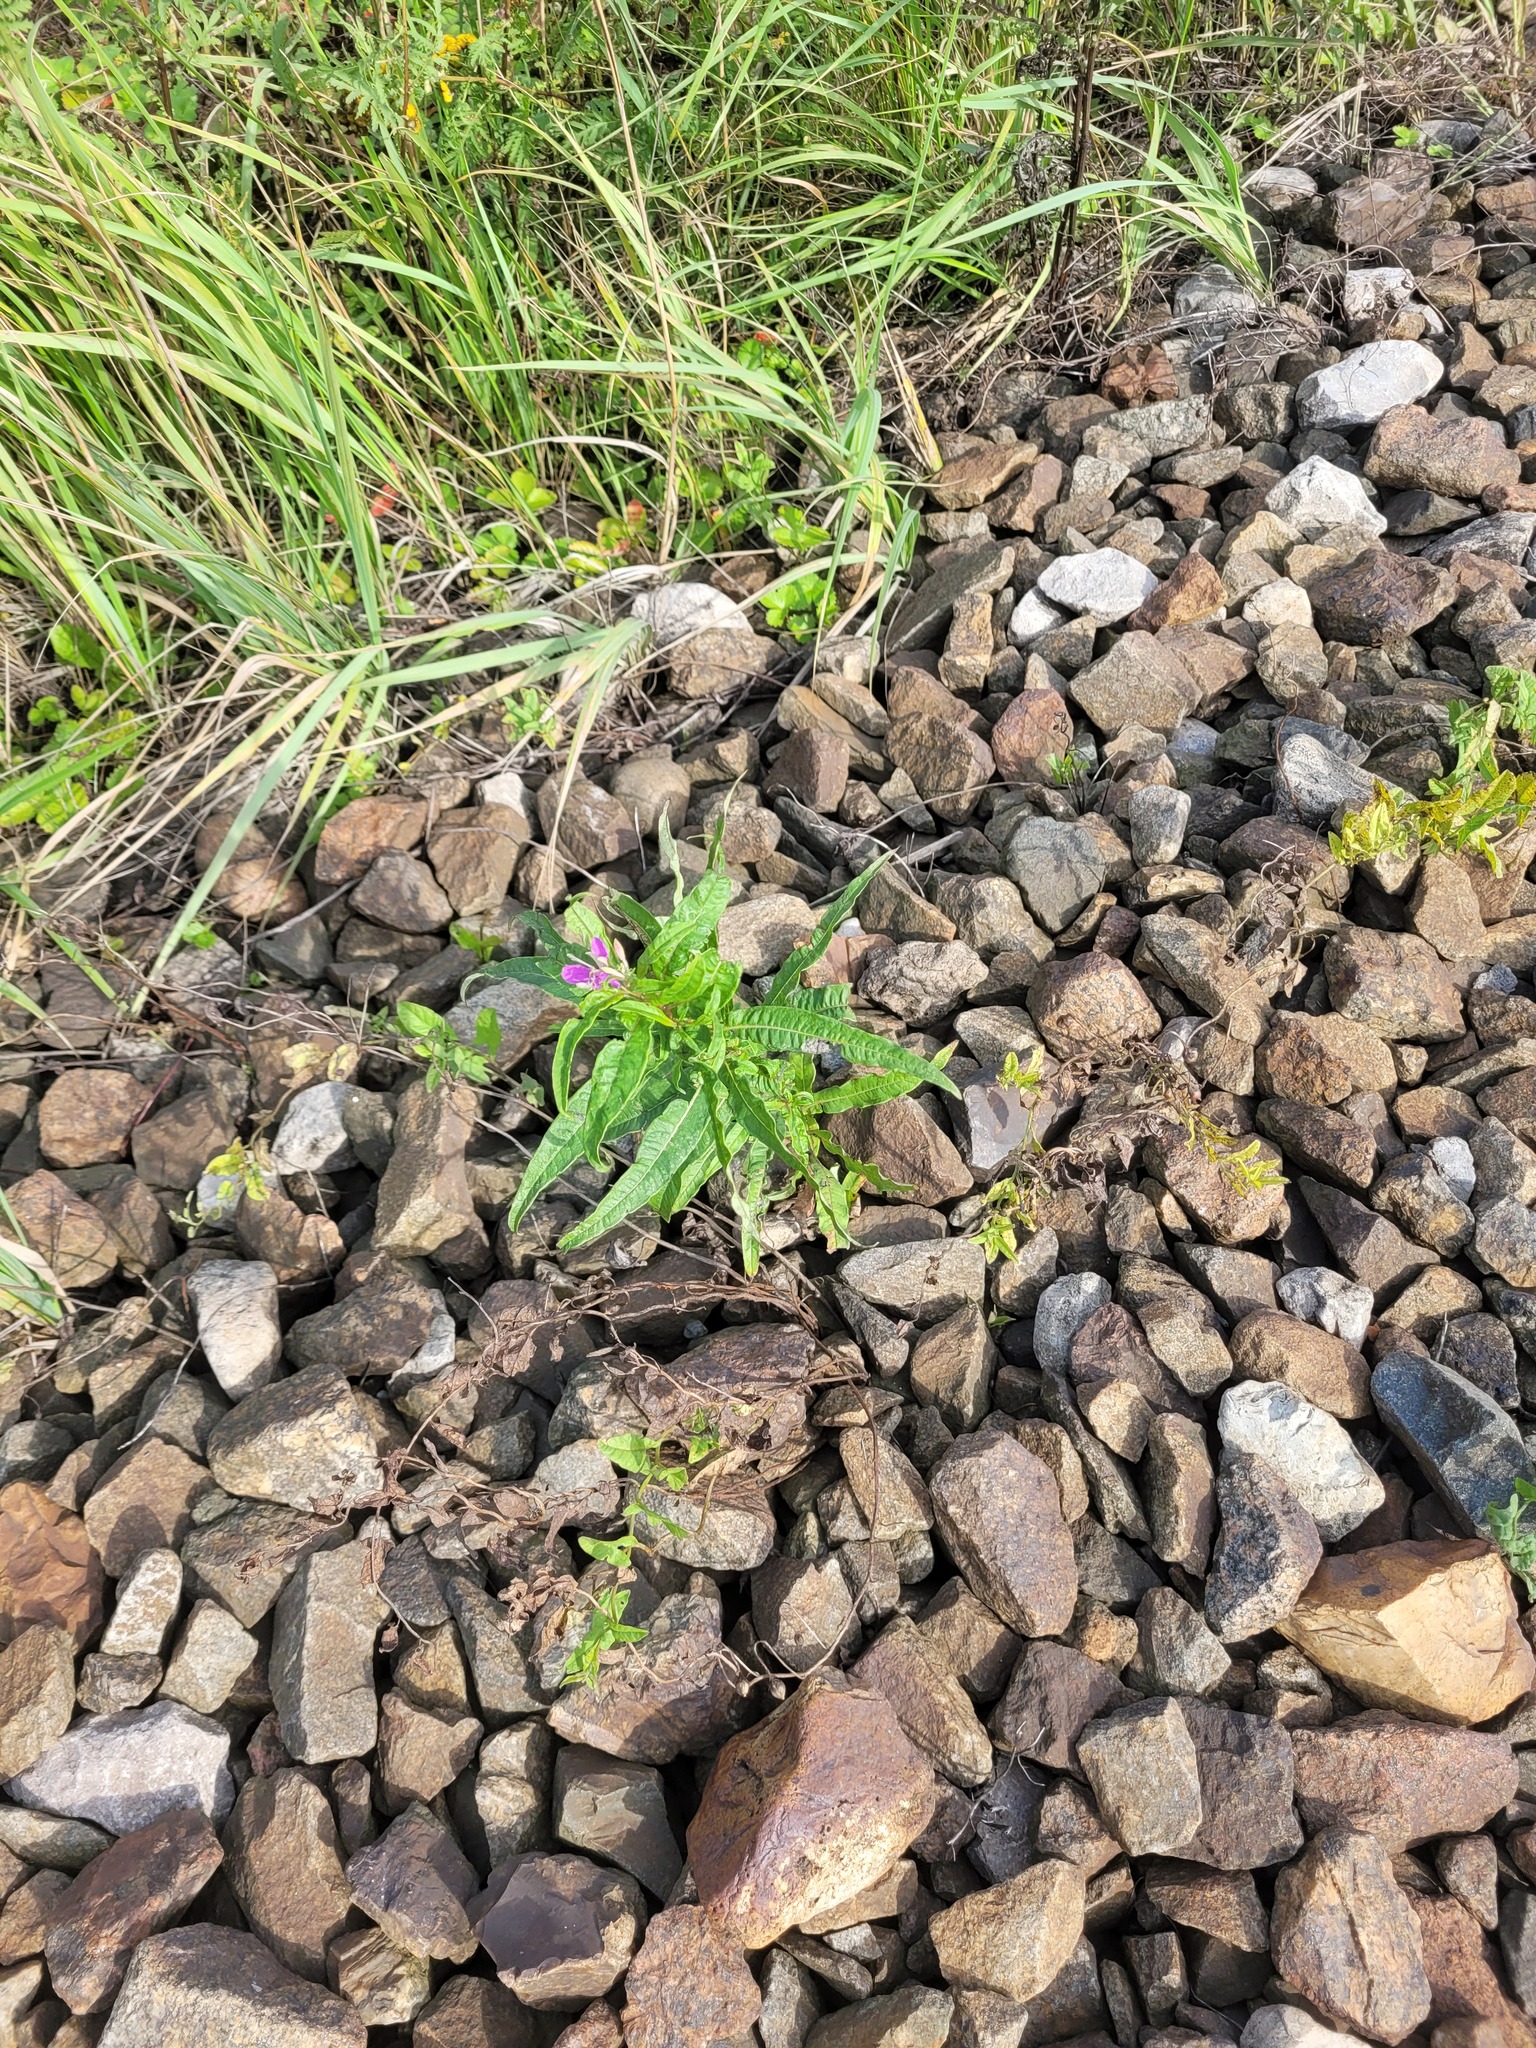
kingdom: Plantae
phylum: Tracheophyta
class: Magnoliopsida
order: Myrtales
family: Onagraceae
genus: Chamaenerion
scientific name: Chamaenerion angustifolium
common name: Fireweed
